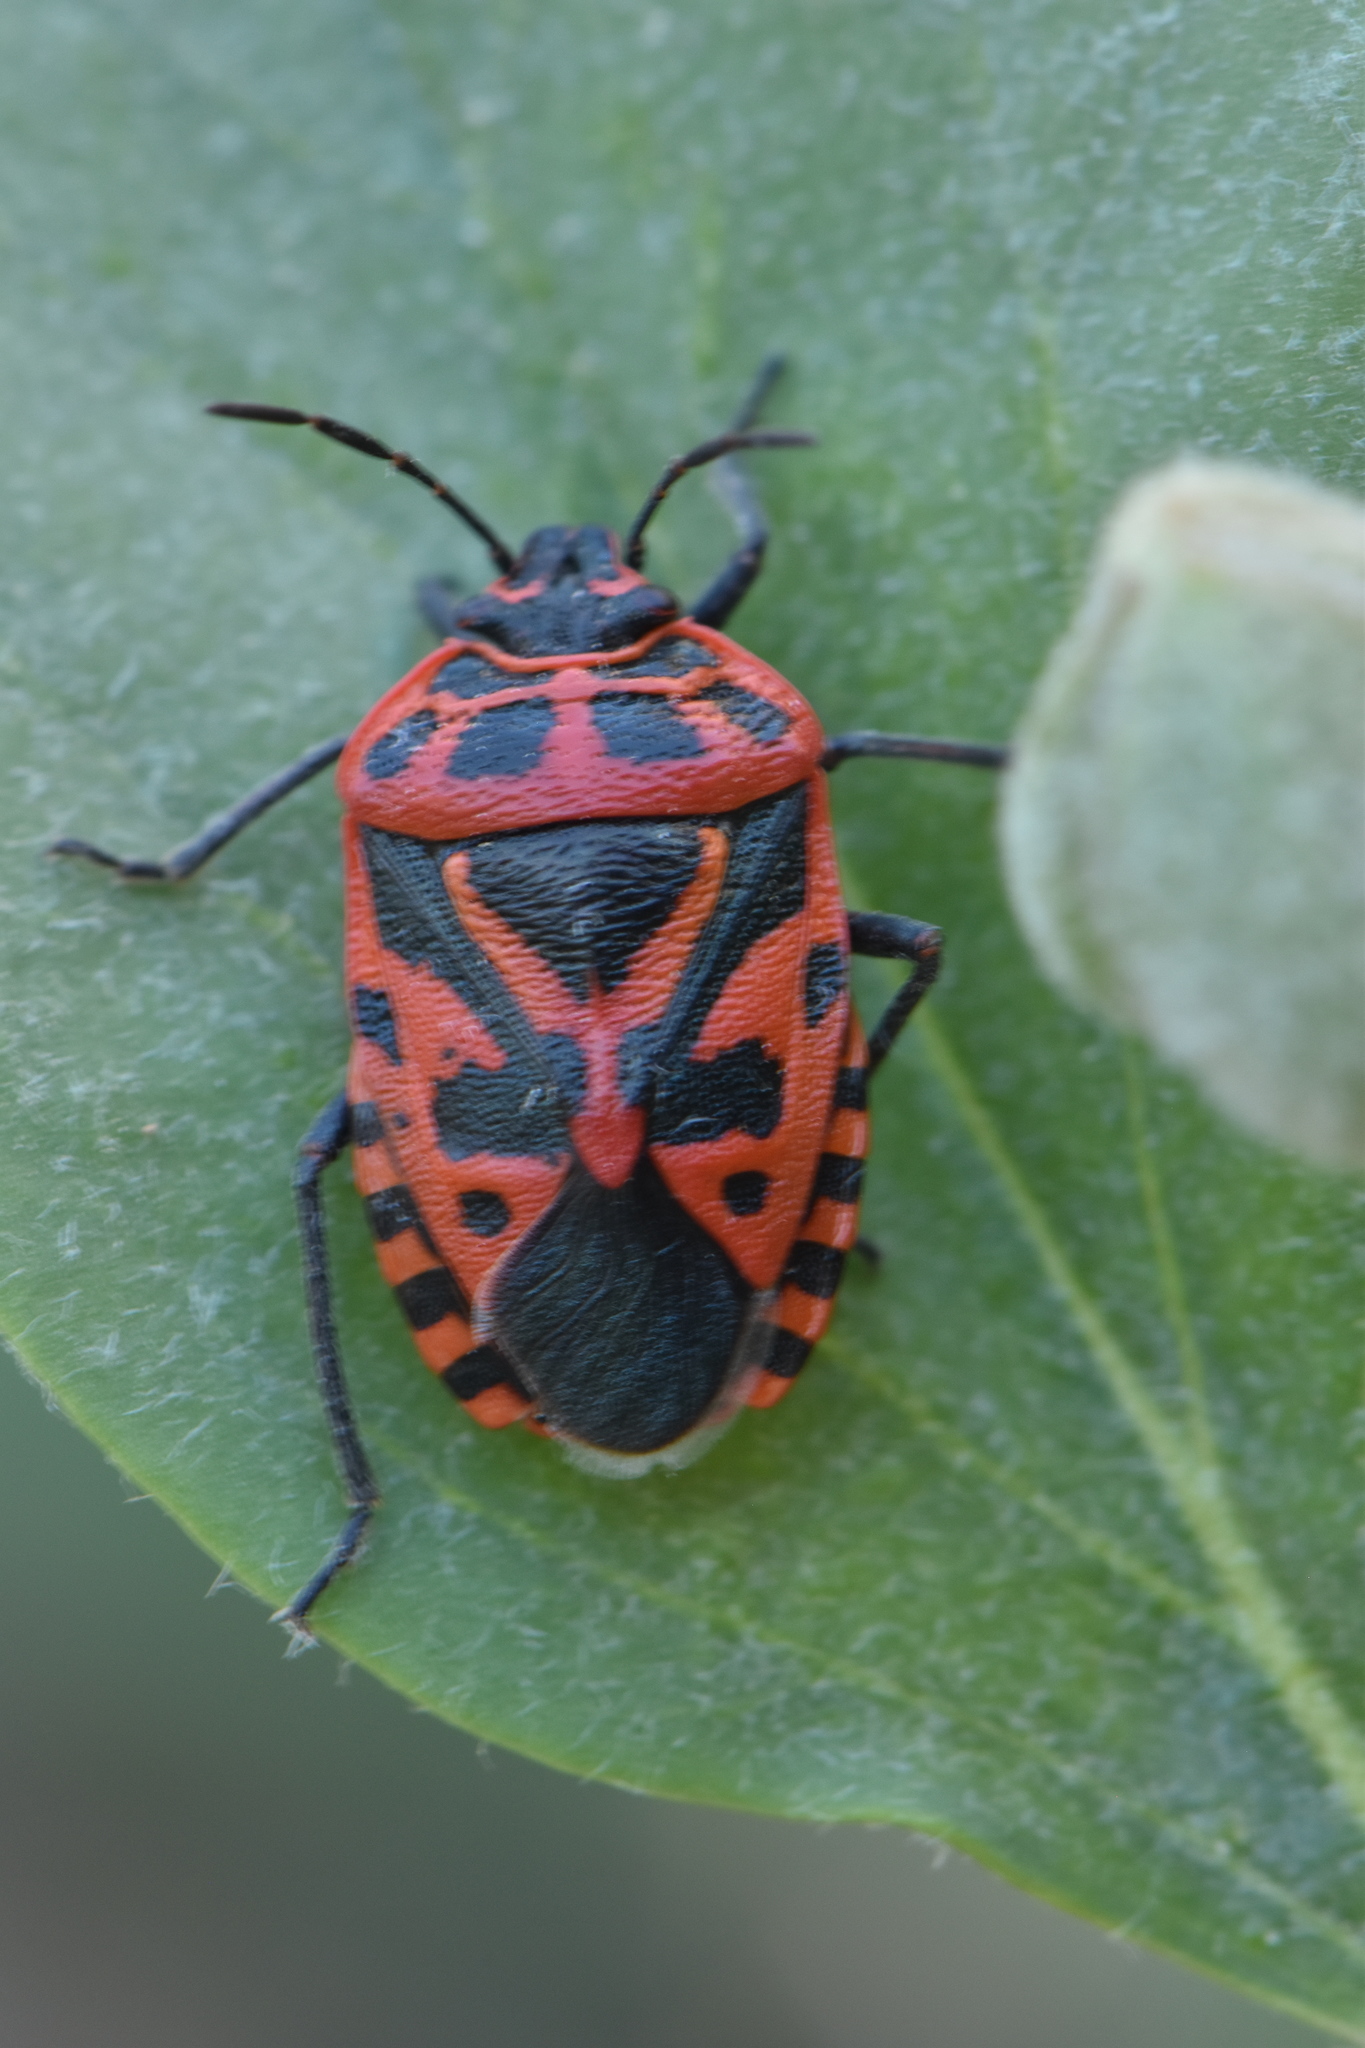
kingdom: Animalia
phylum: Arthropoda
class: Insecta
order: Hemiptera
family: Pentatomidae
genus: Eurydema
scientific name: Eurydema ventralis
